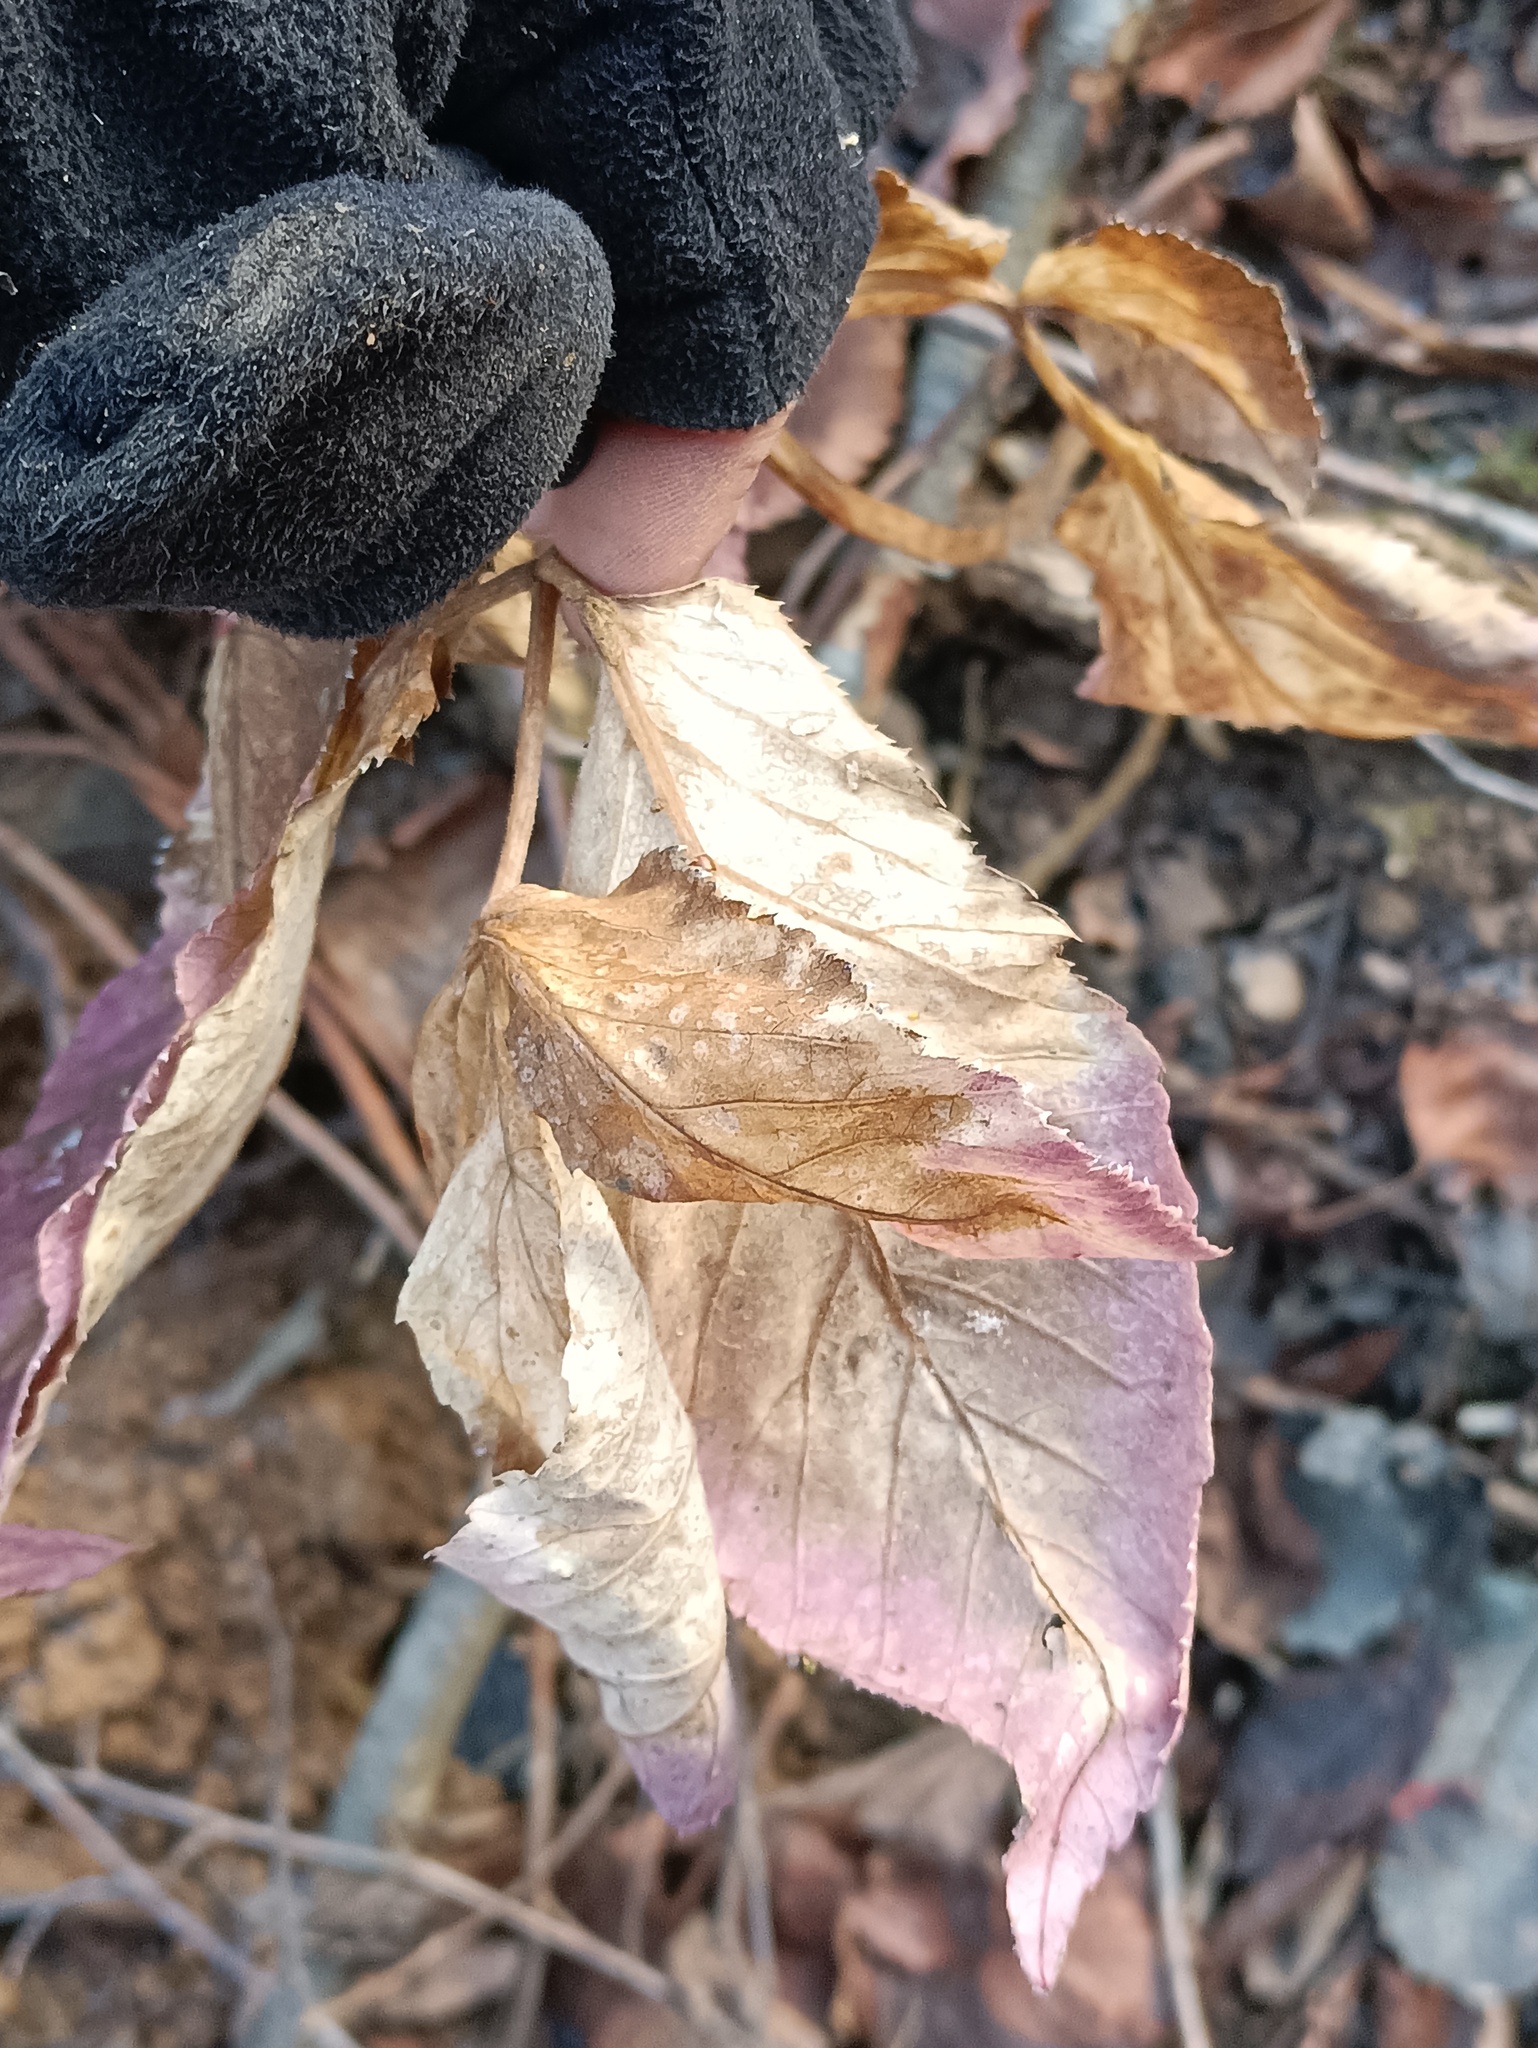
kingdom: Plantae
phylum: Tracheophyta
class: Magnoliopsida
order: Apiales
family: Apiaceae
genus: Angelica
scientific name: Angelica sylvestris
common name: Wild angelica
